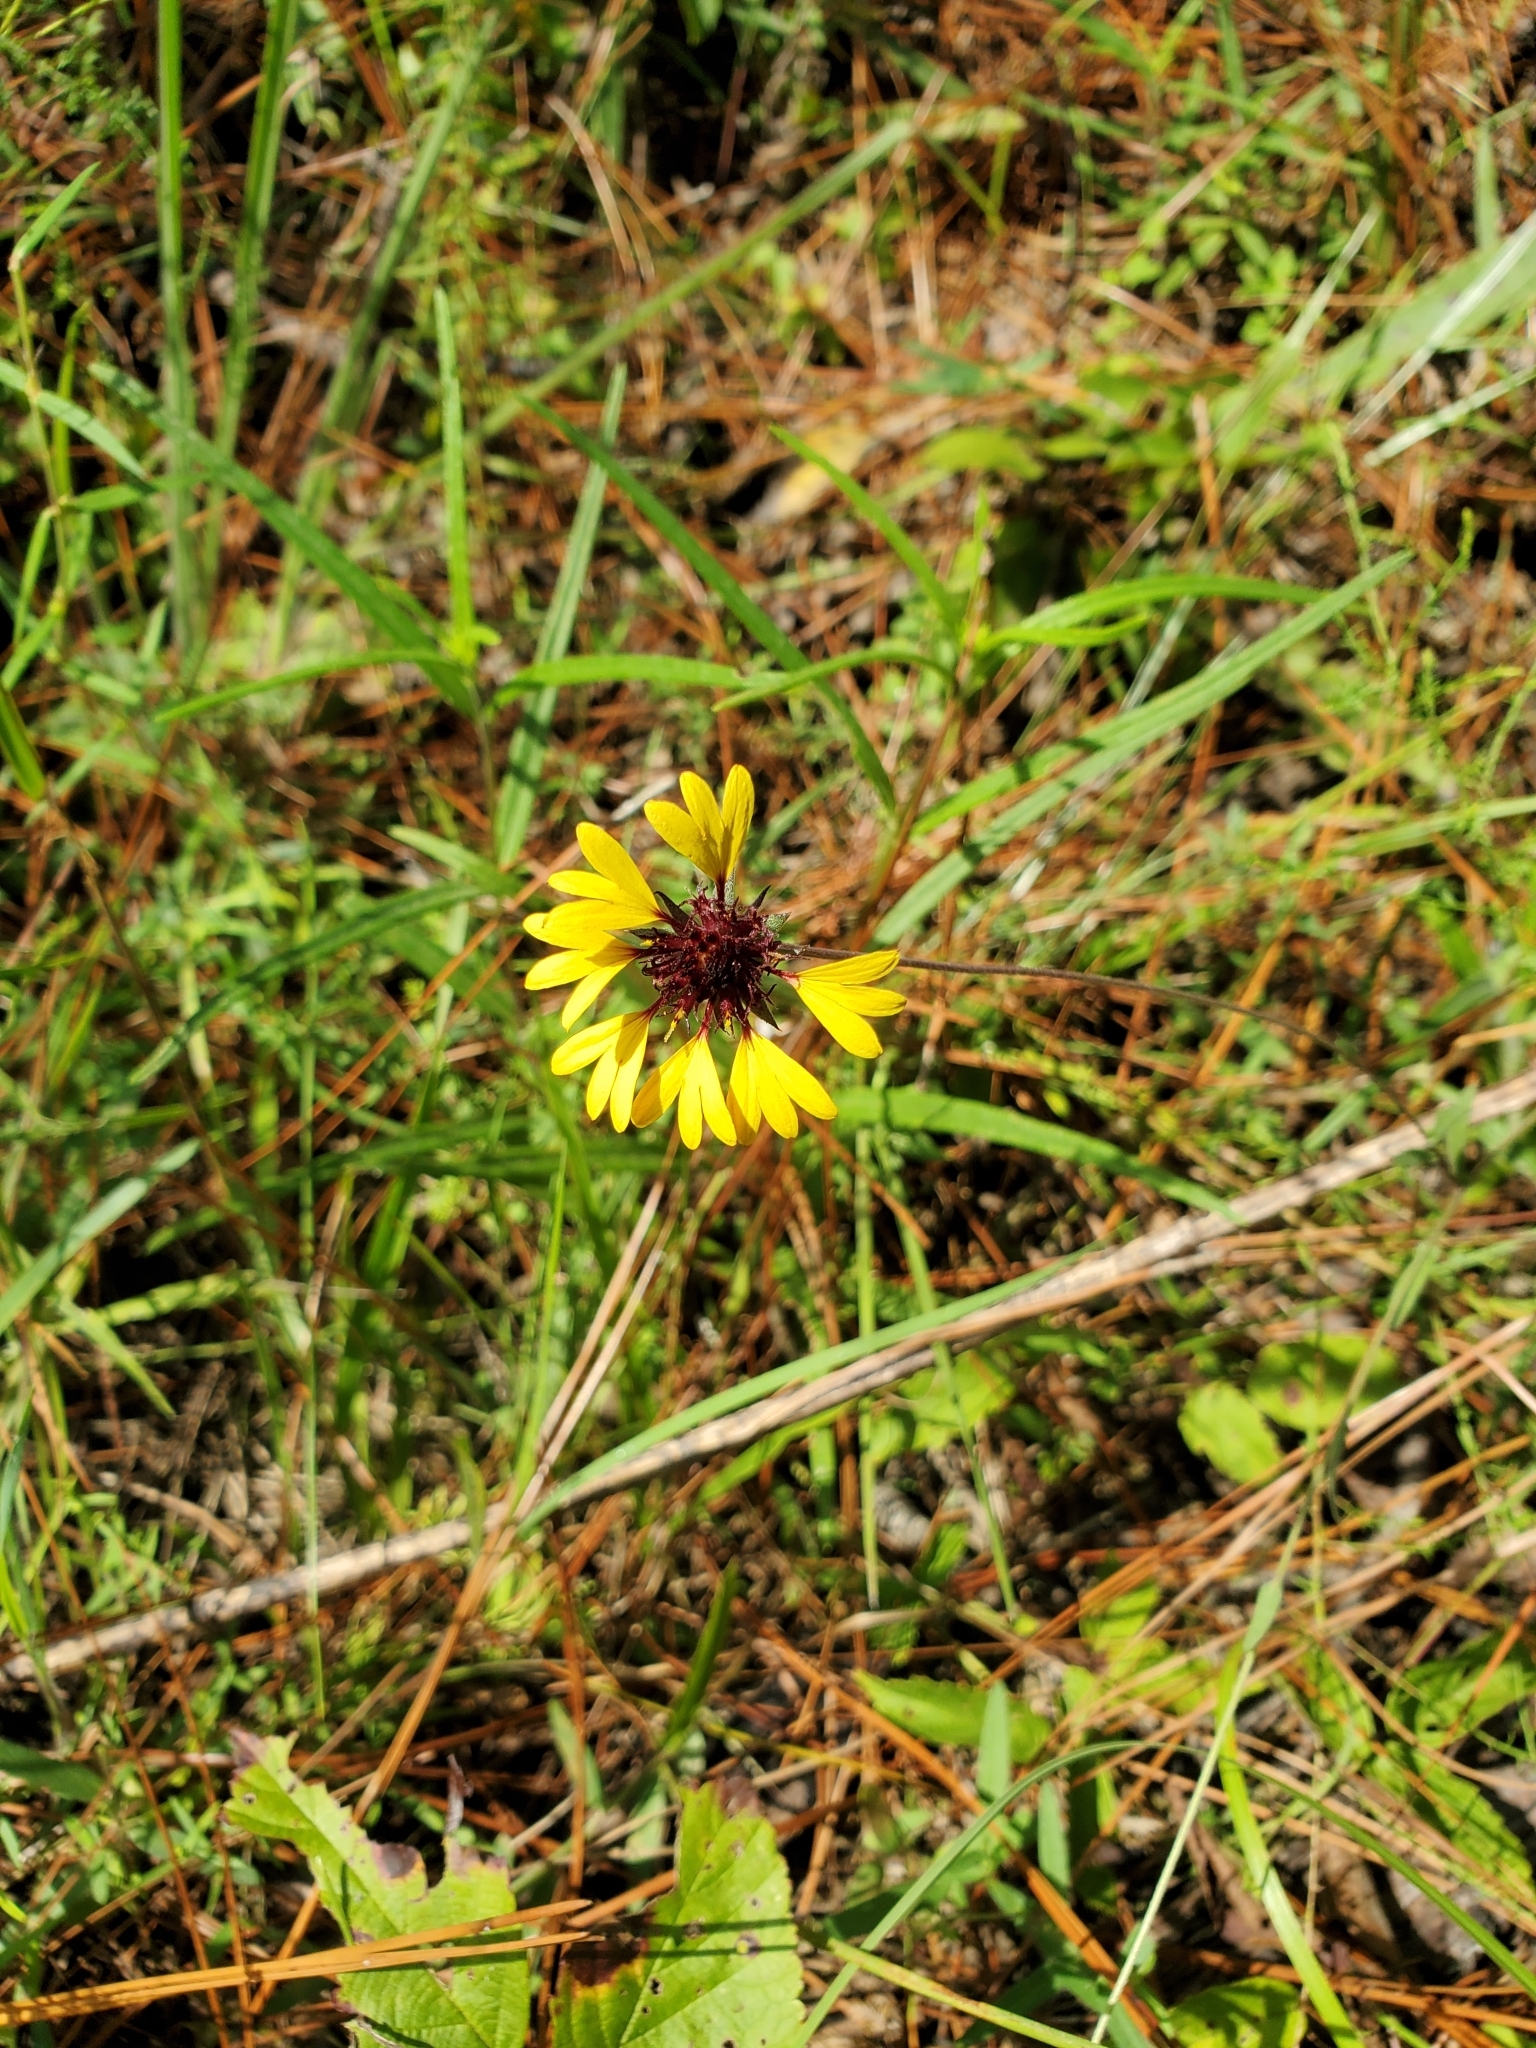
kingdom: Plantae
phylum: Tracheophyta
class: Magnoliopsida
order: Asterales
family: Asteraceae
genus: Gaillardia
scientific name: Gaillardia aestivalis
